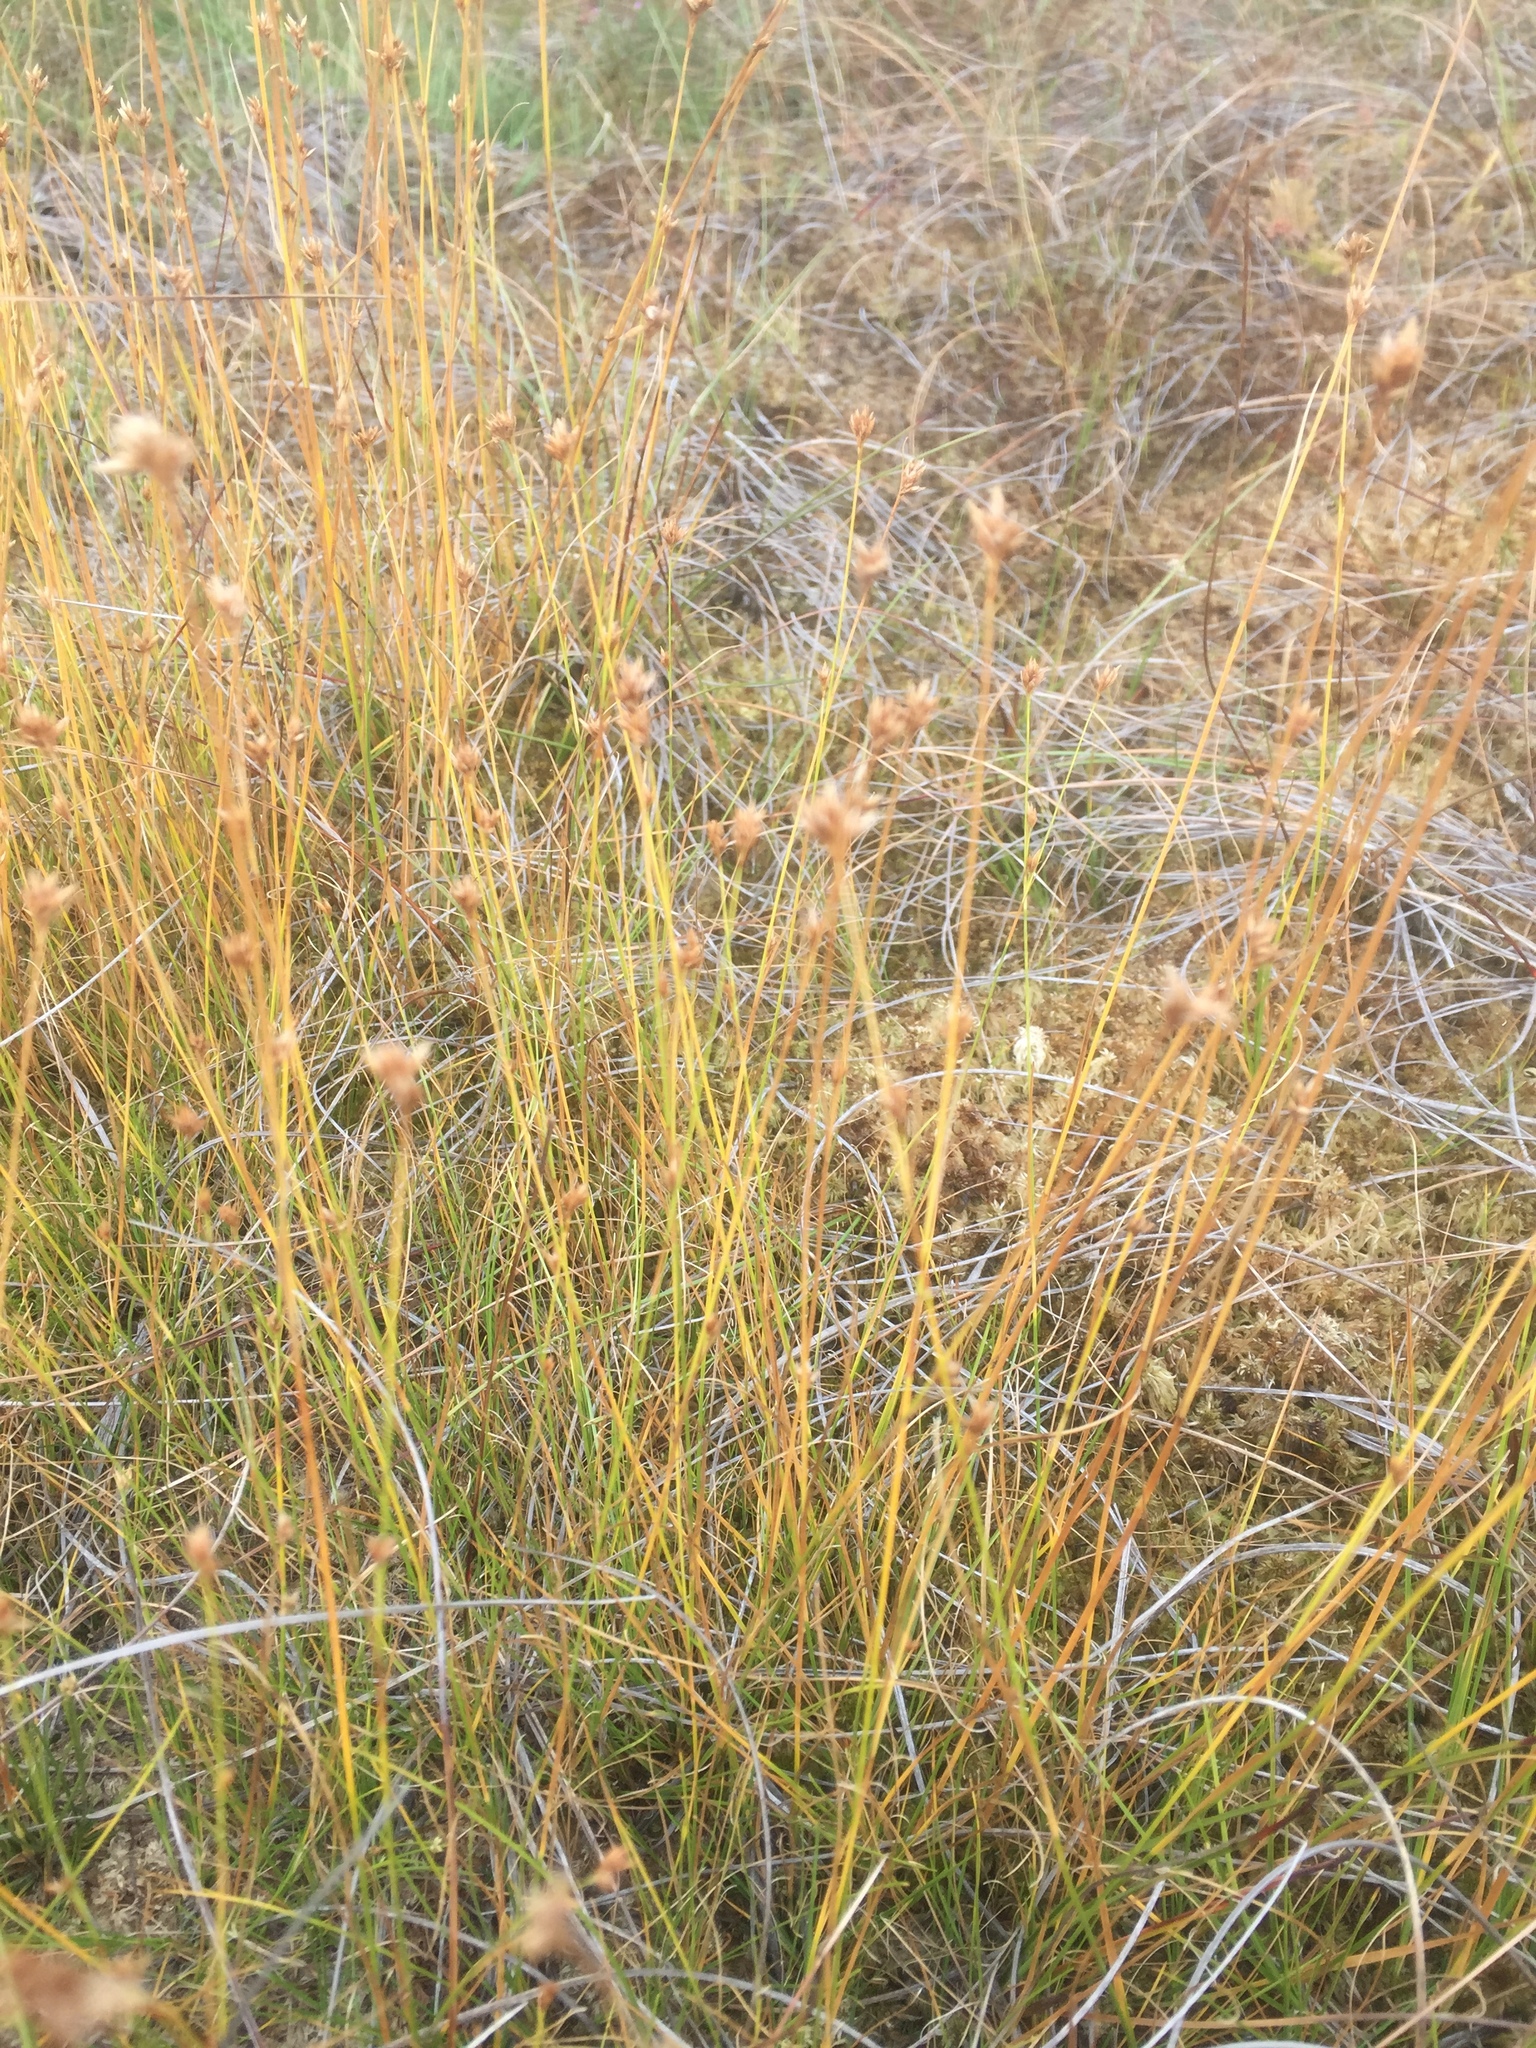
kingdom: Plantae
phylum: Tracheophyta
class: Liliopsida
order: Poales
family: Cyperaceae
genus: Rhynchospora
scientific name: Rhynchospora alba
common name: White beak-sedge
